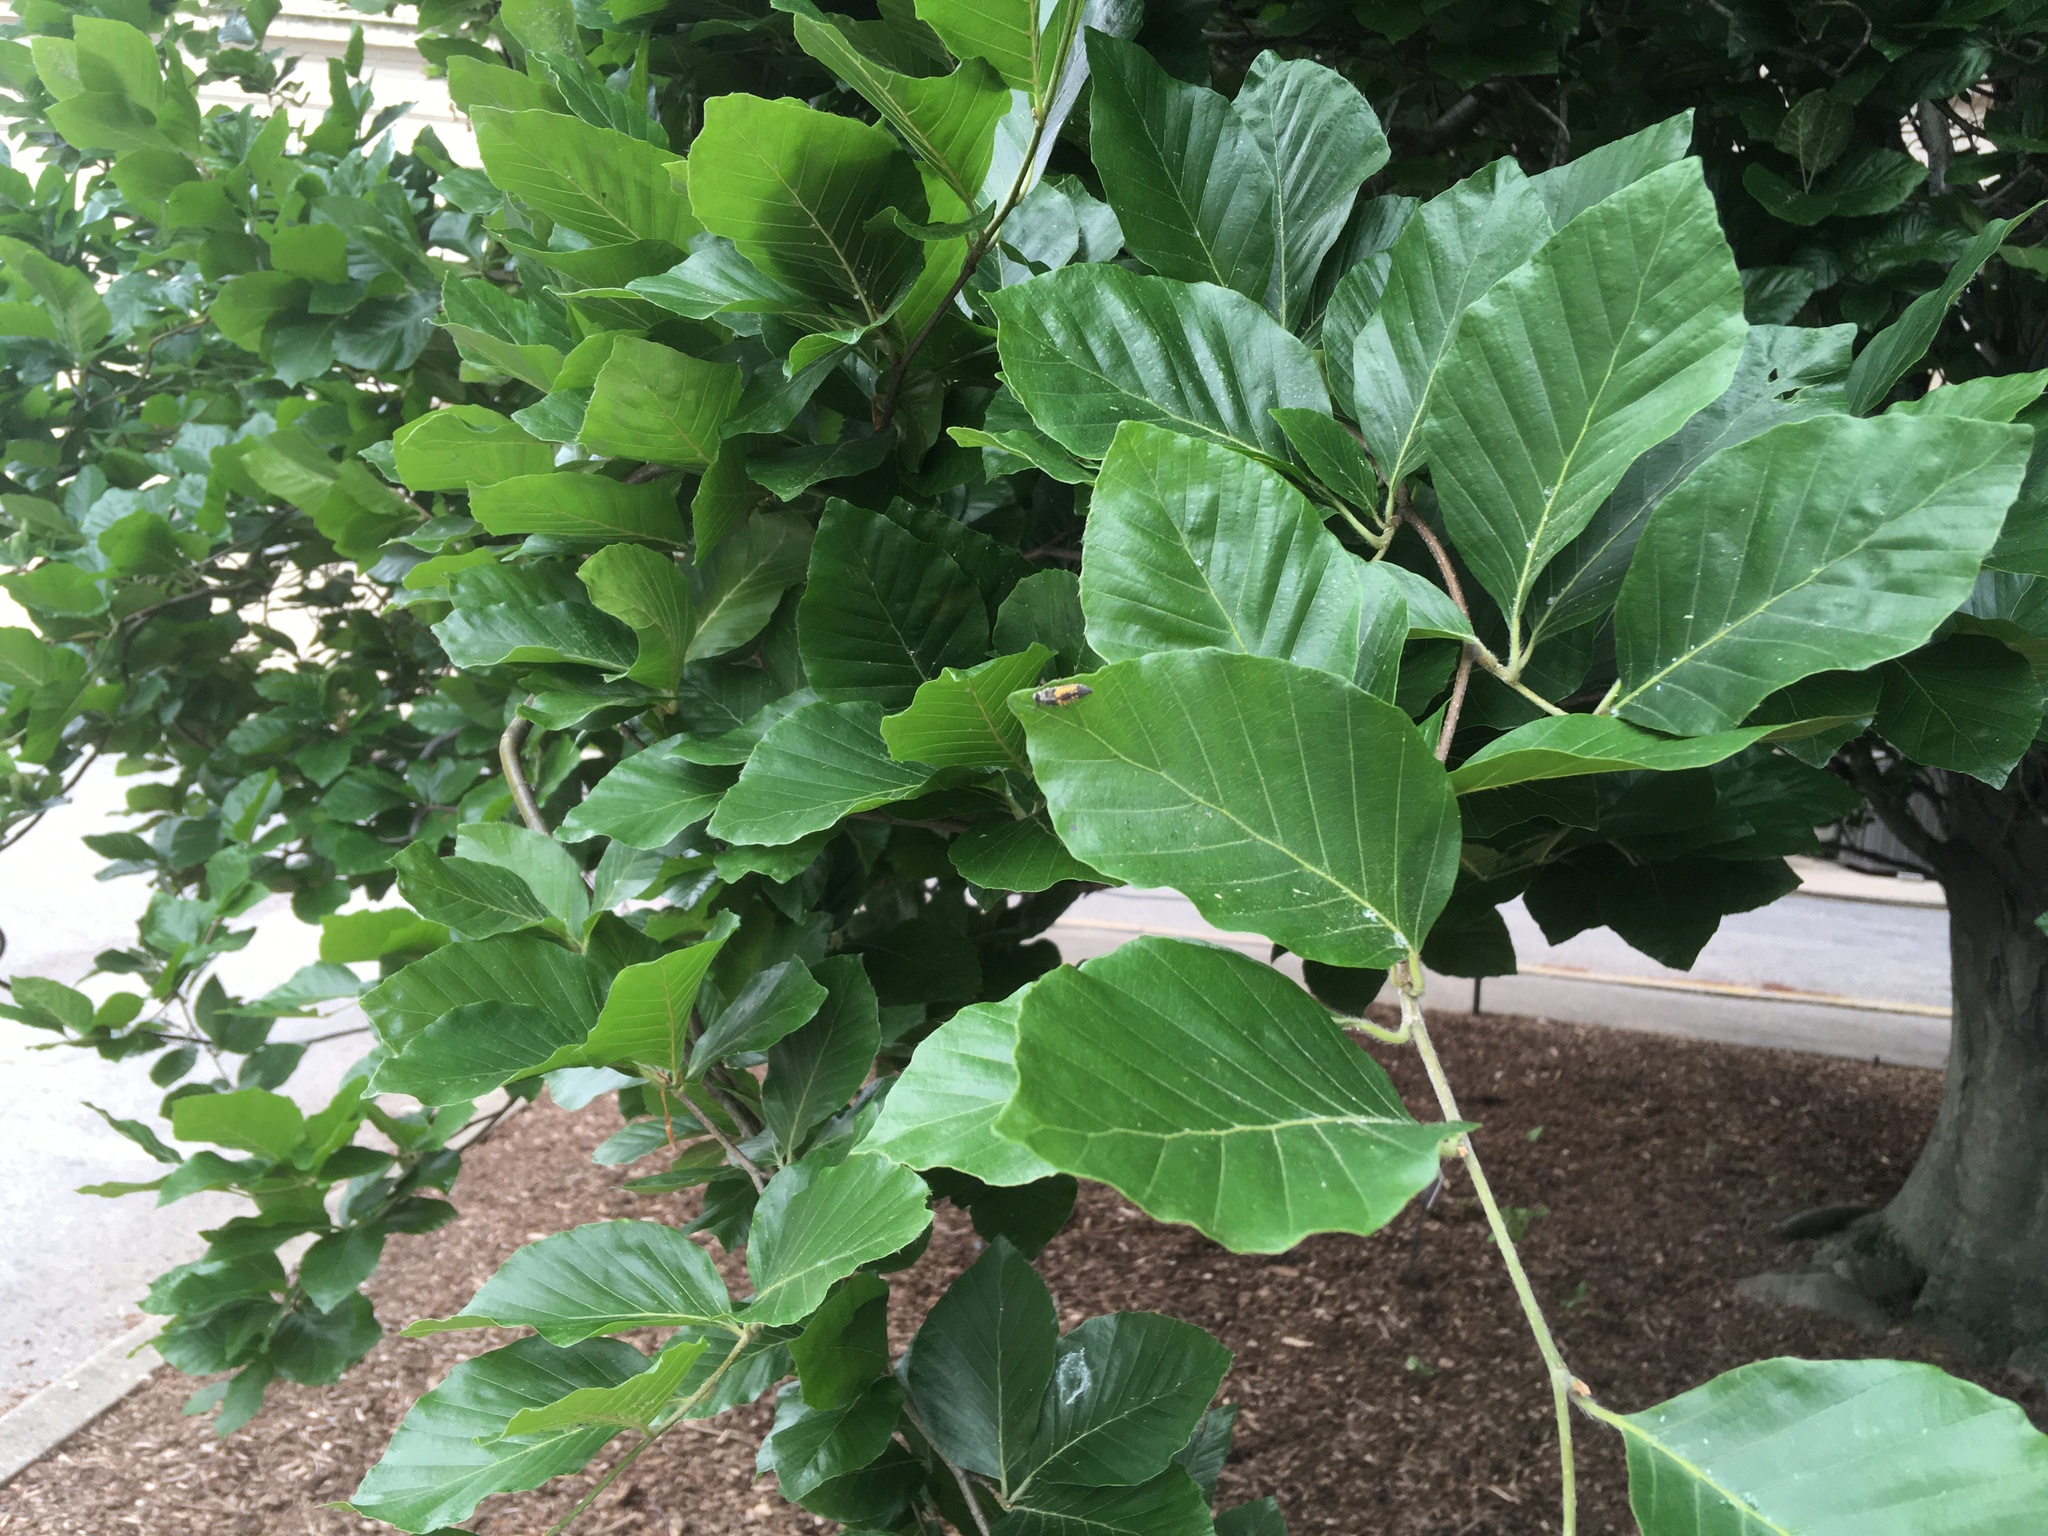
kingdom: Animalia
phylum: Arthropoda
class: Insecta
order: Coleoptera
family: Coccinellidae
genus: Harmonia
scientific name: Harmonia axyridis
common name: Harlequin ladybird
